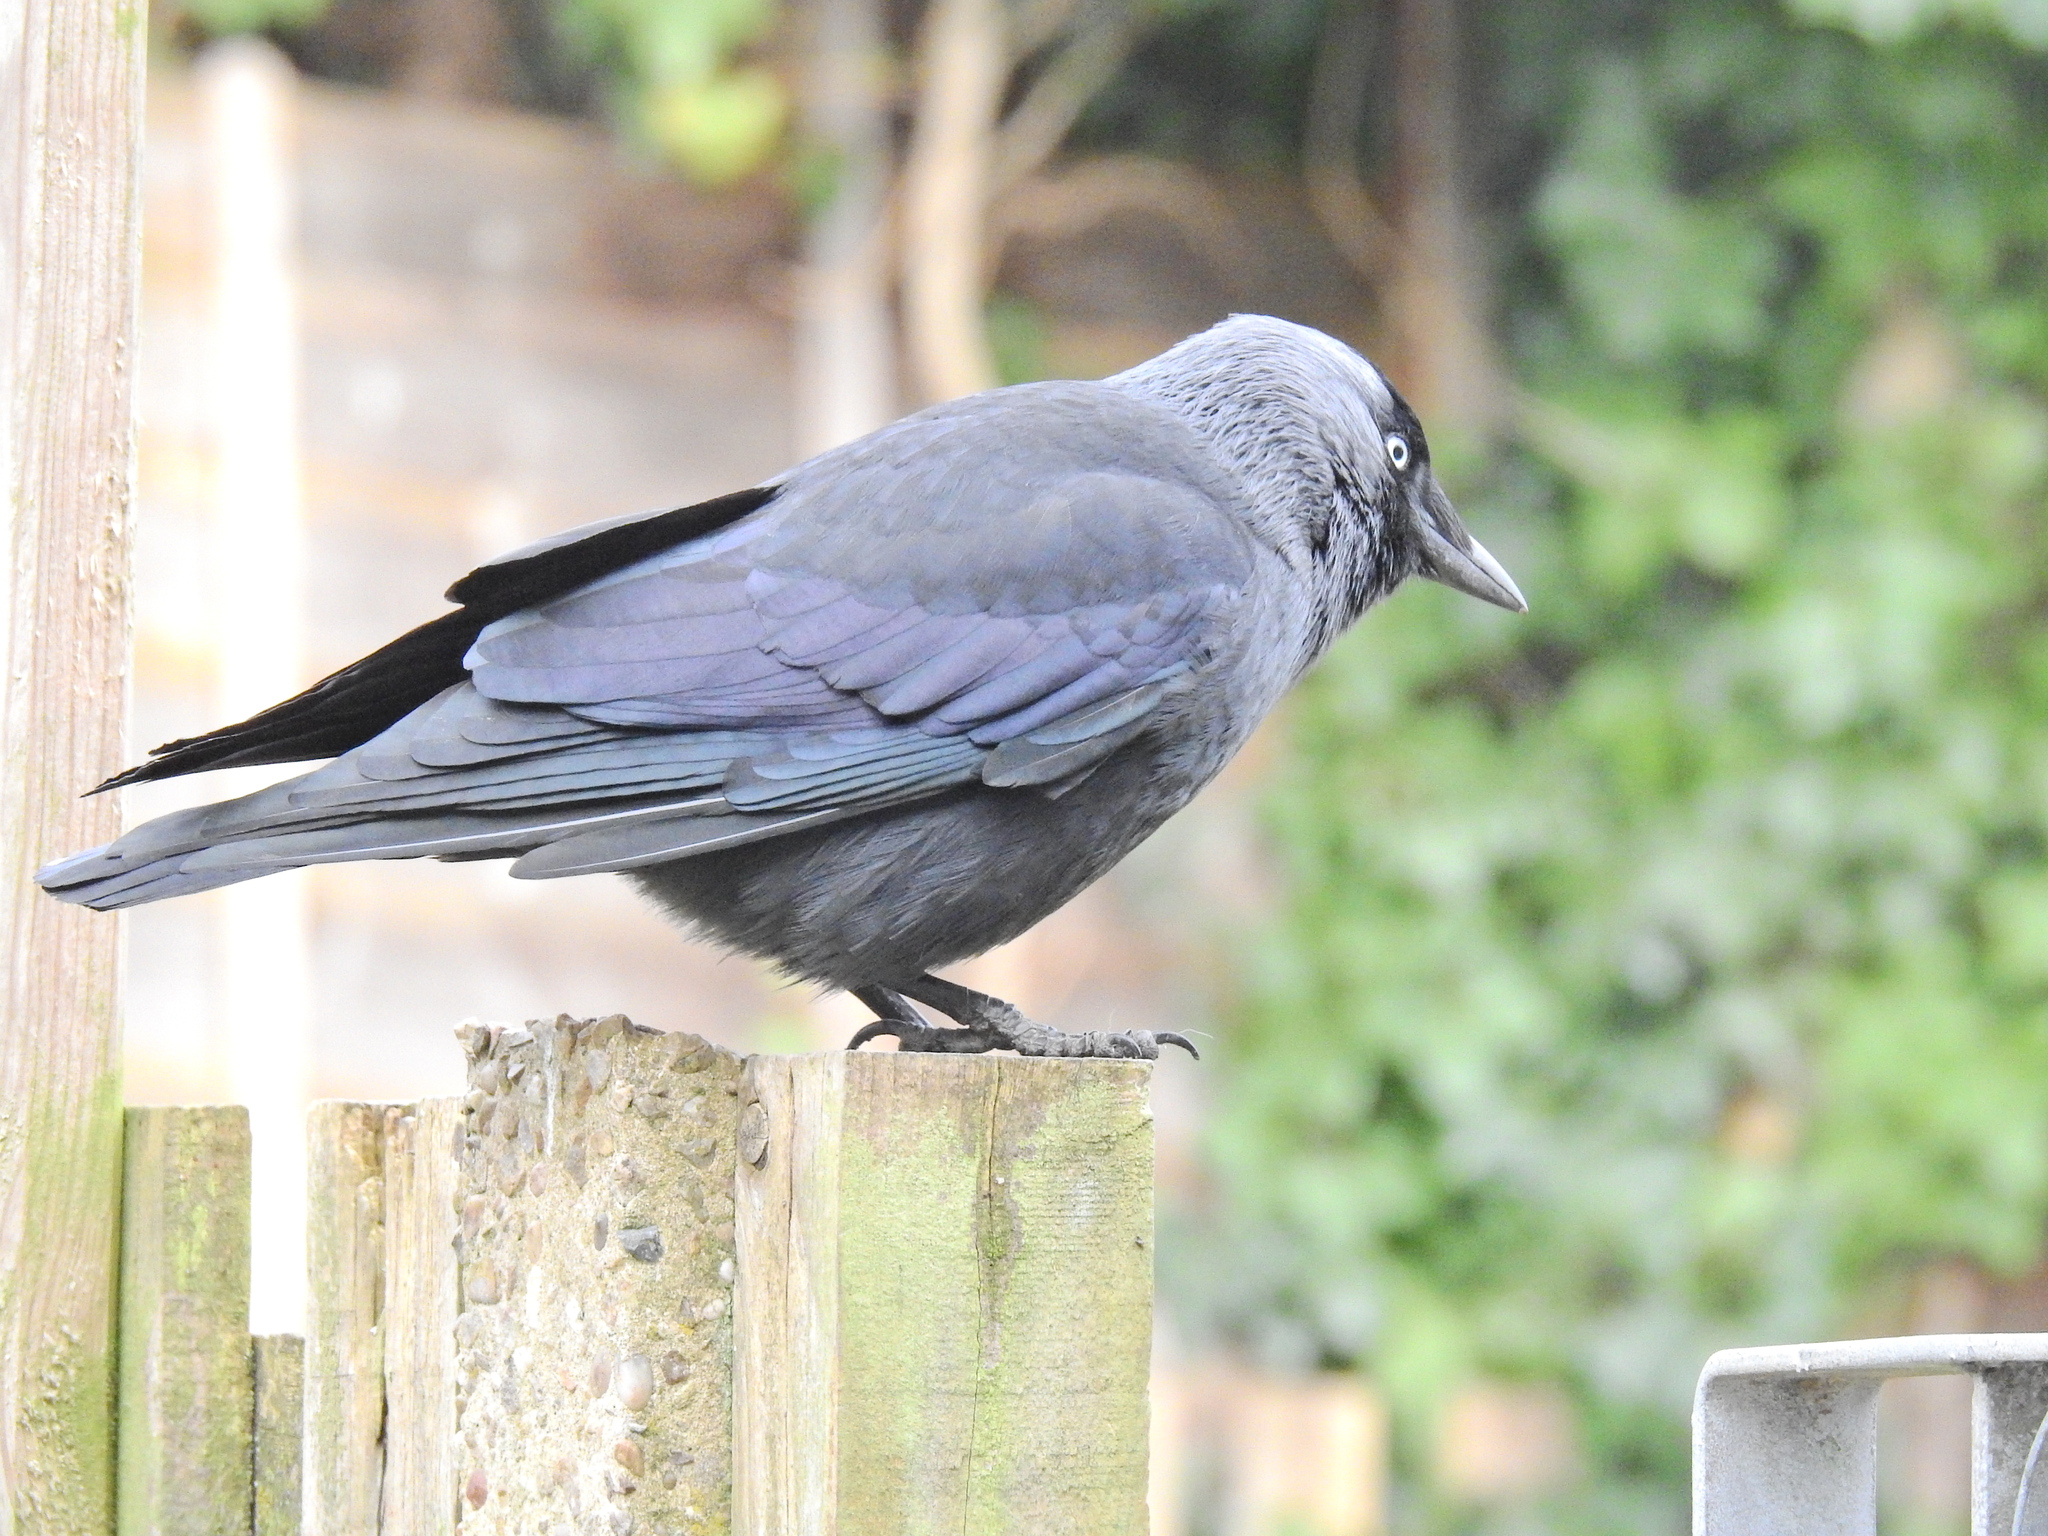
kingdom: Animalia
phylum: Chordata
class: Aves
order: Passeriformes
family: Corvidae
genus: Coloeus
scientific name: Coloeus monedula
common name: Western jackdaw
